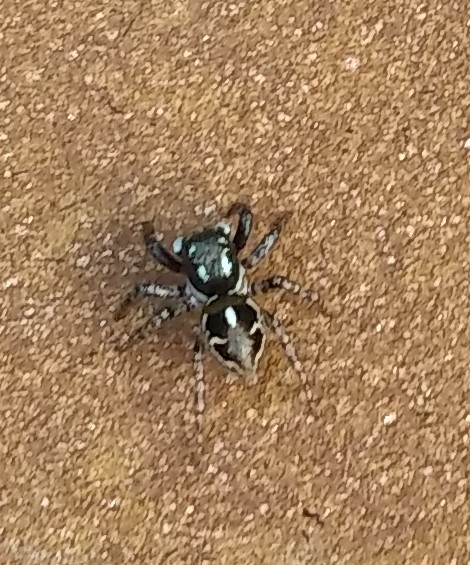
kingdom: Animalia
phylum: Arthropoda
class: Arachnida
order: Araneae
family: Salticidae
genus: Anasaitis
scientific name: Anasaitis canosa
